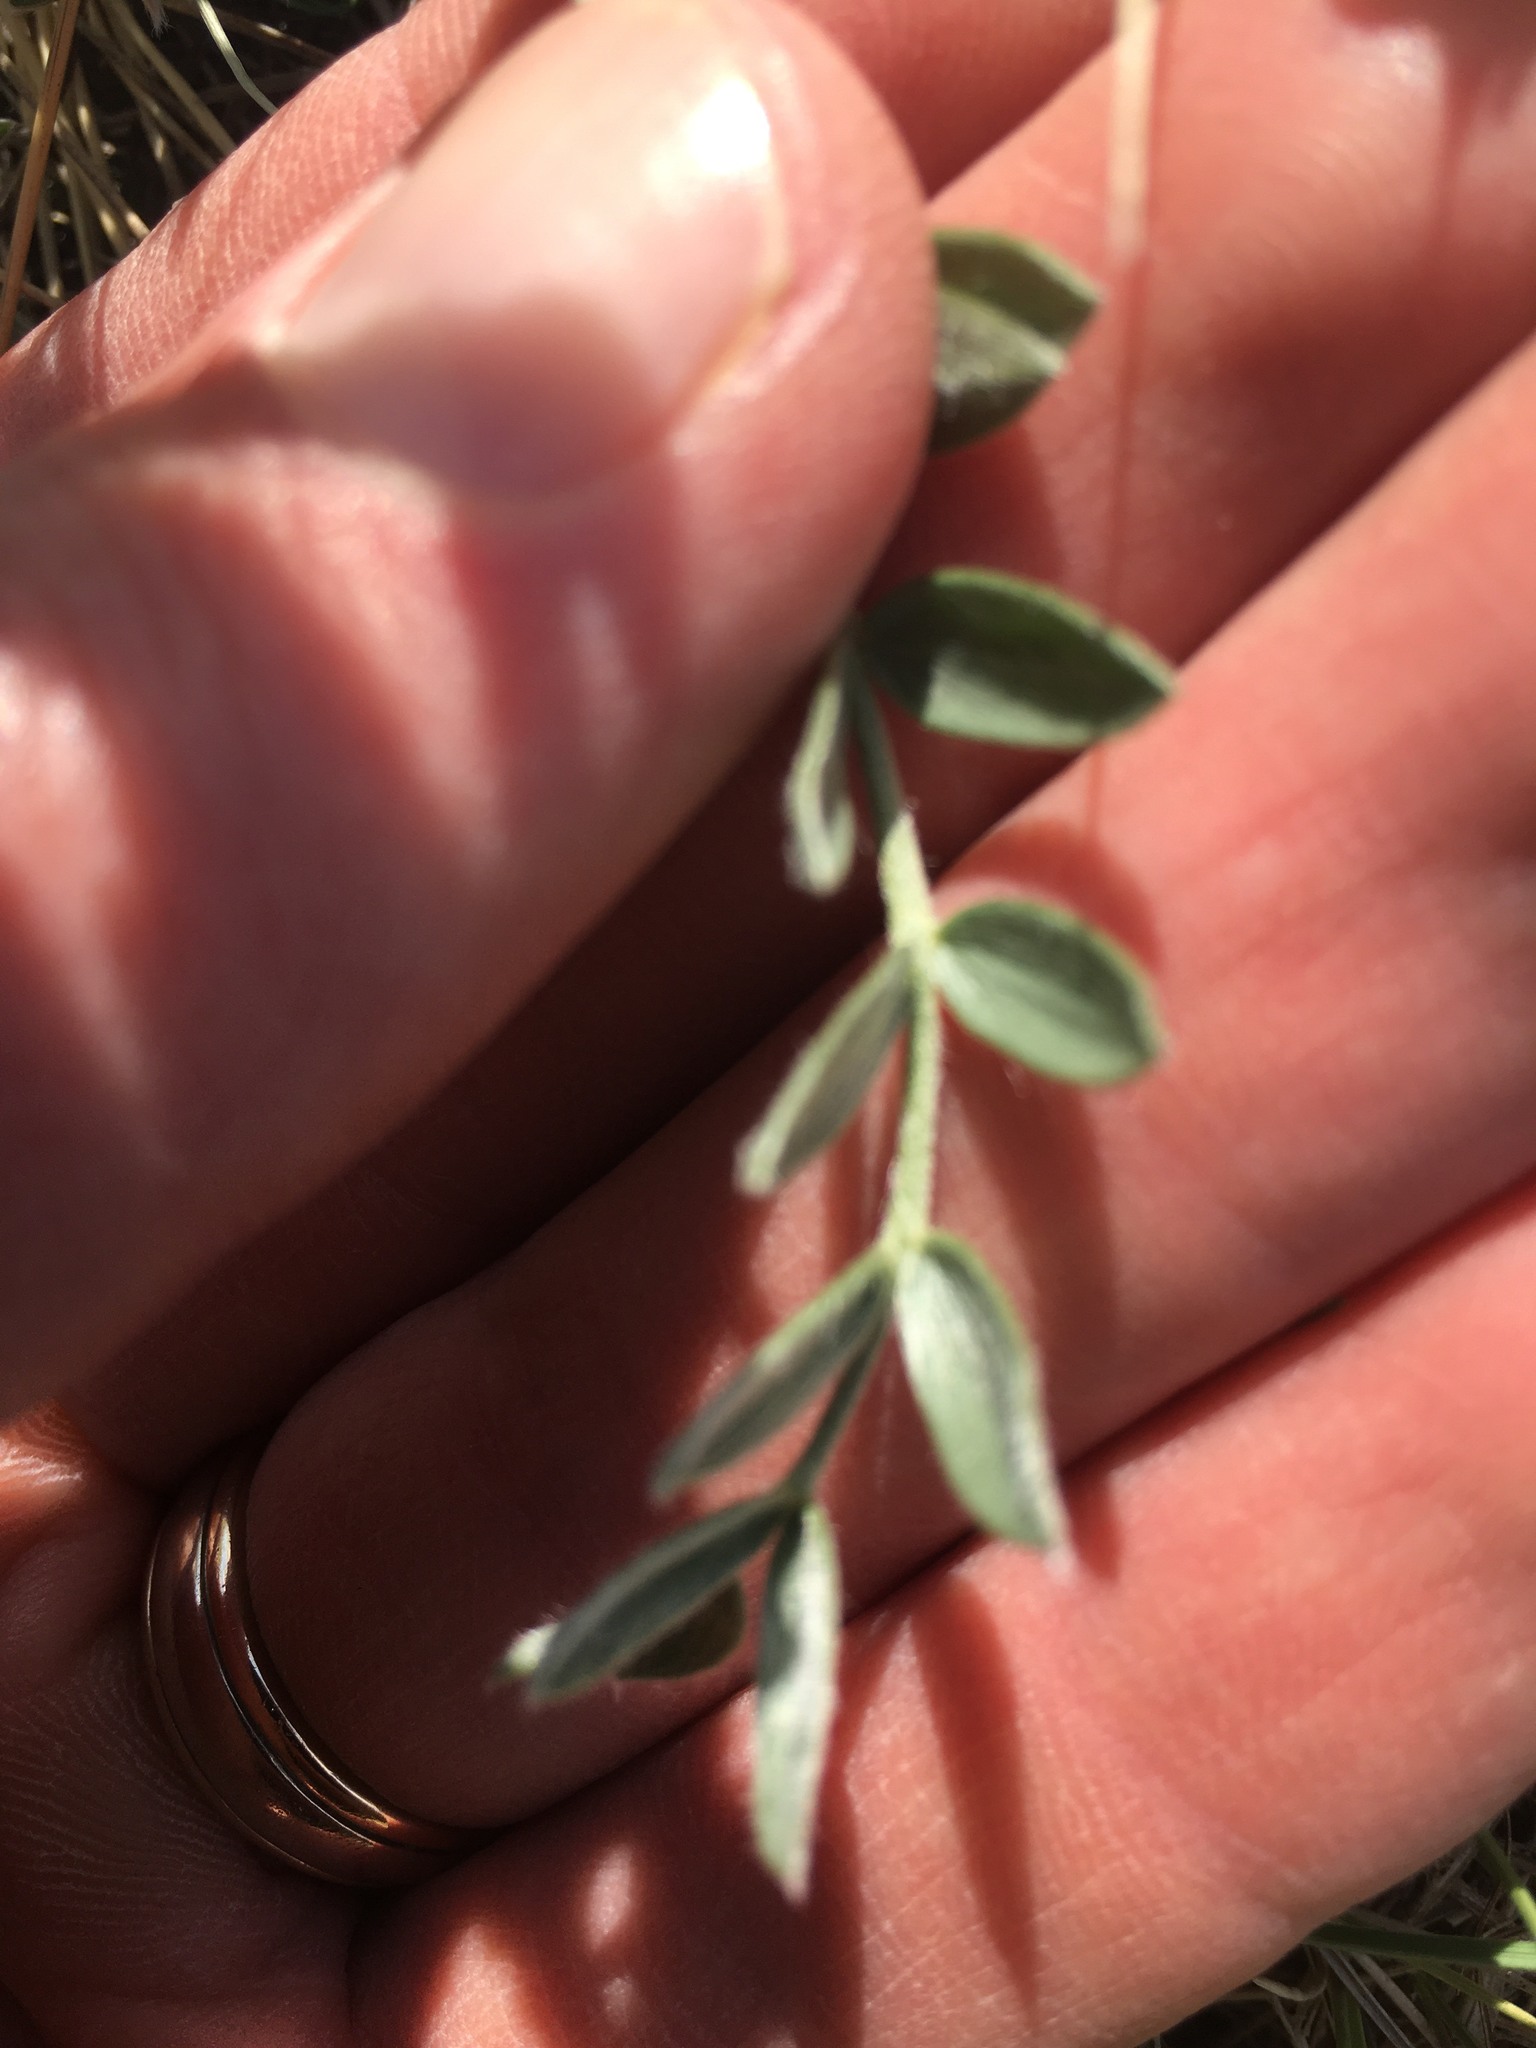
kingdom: Plantae
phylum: Tracheophyta
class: Magnoliopsida
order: Fabales
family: Fabaceae
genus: Oxytropis
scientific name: Oxytropis sericea
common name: Silky locoweed
